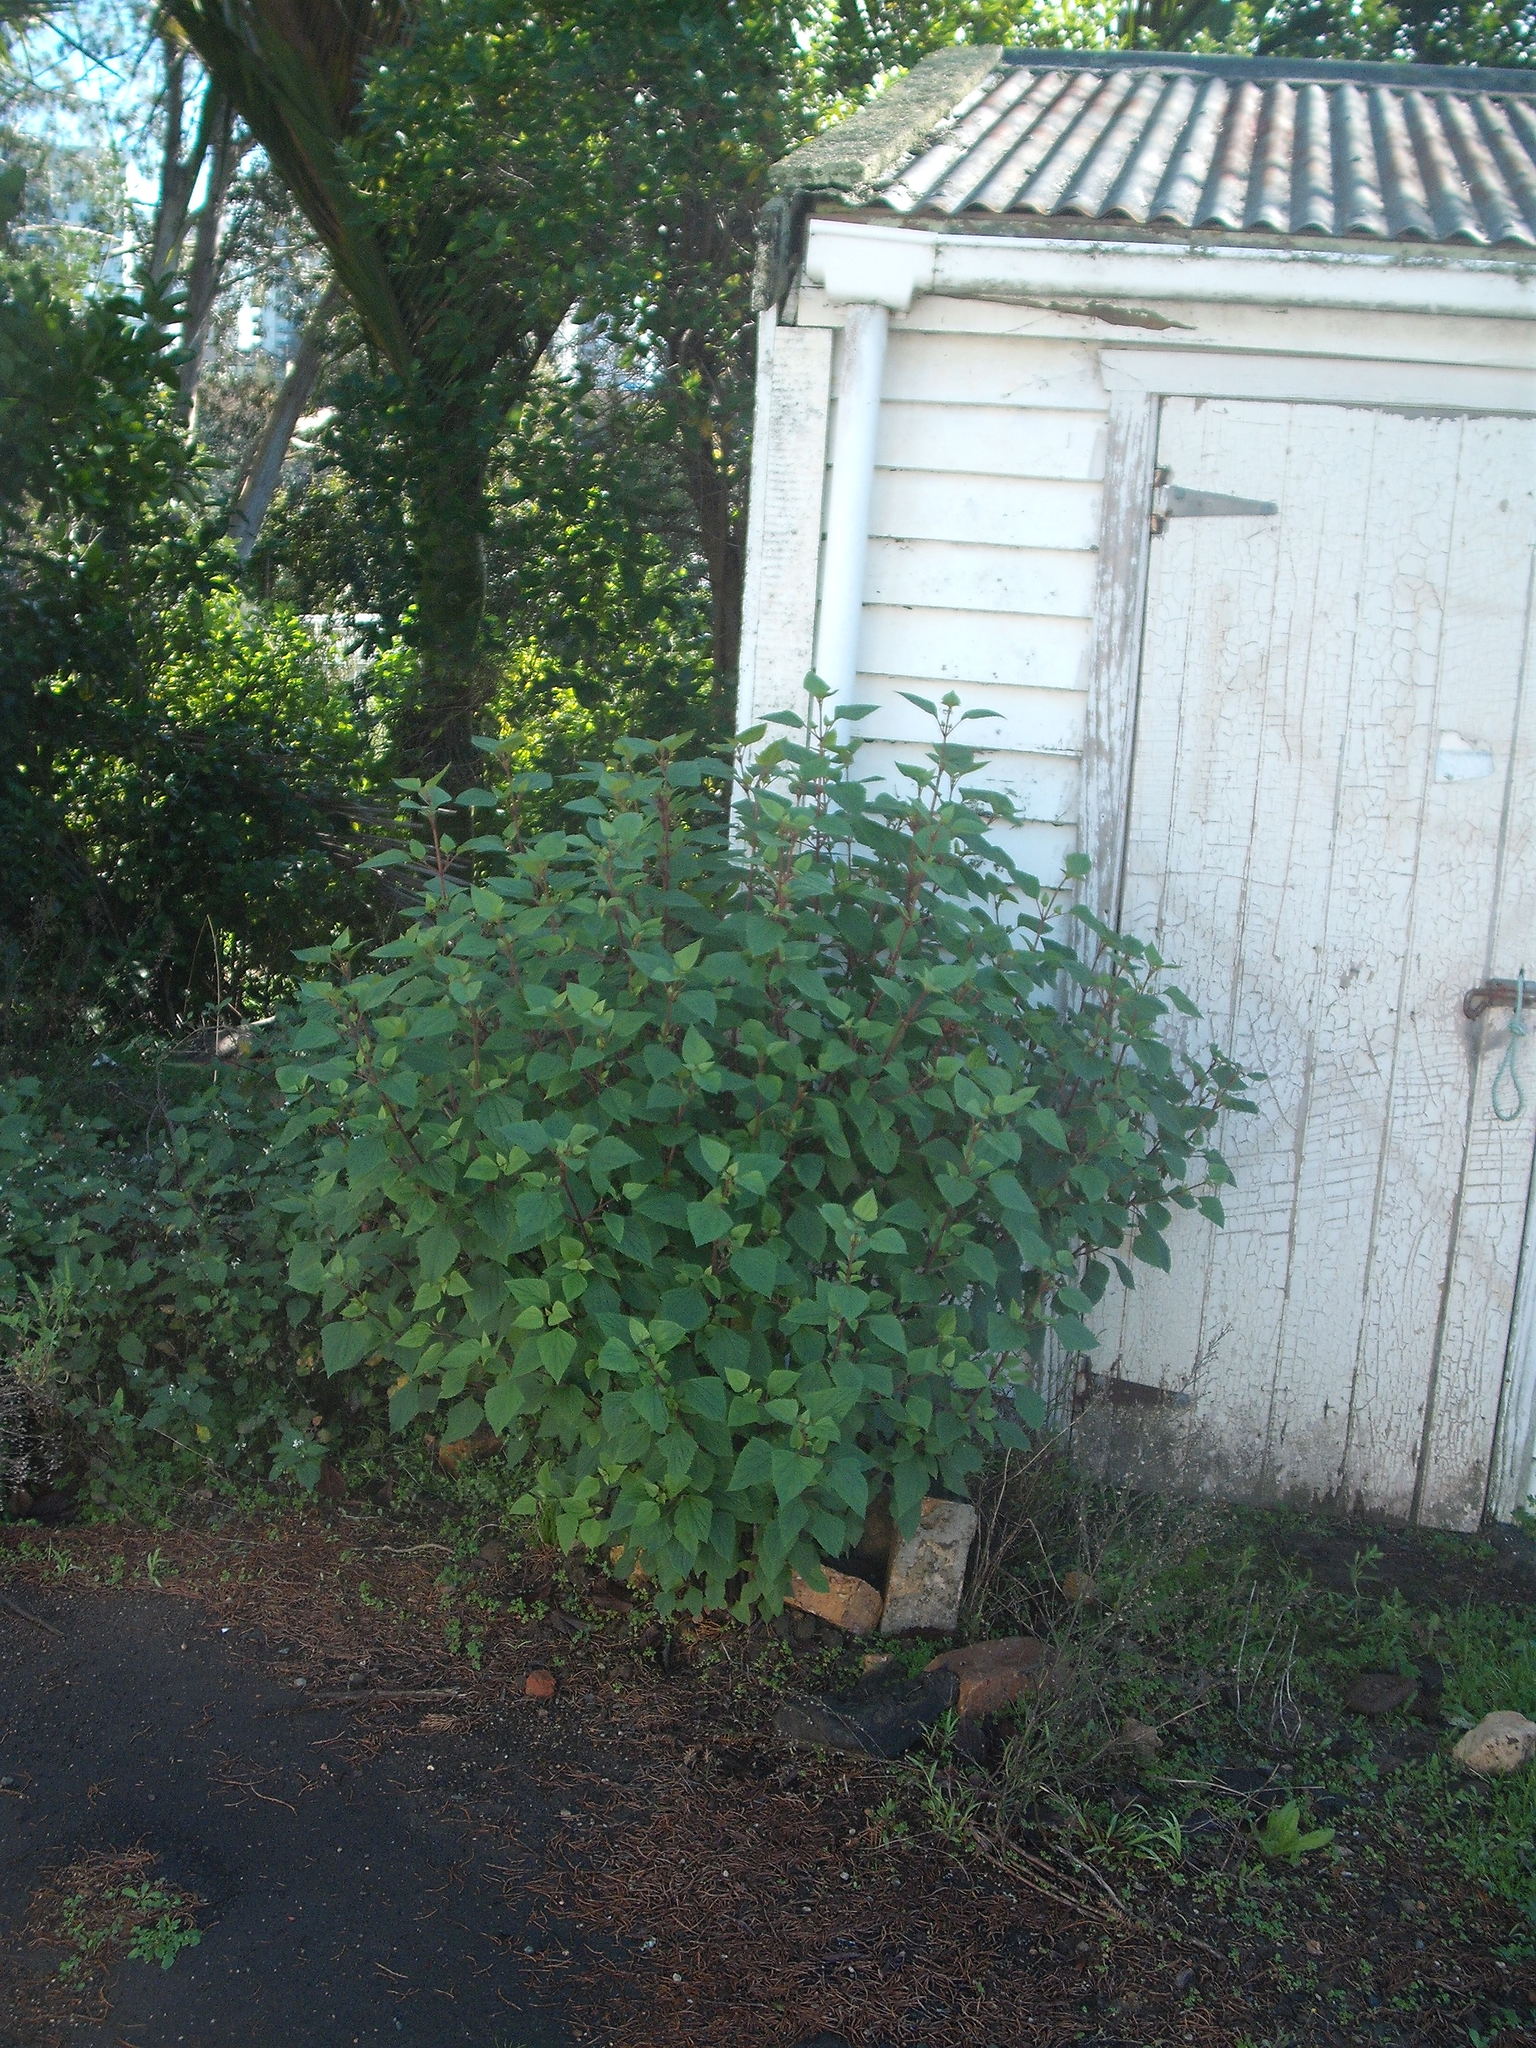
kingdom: Plantae
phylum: Tracheophyta
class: Magnoliopsida
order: Asterales
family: Asteraceae
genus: Ageratina
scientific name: Ageratina adenophora
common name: Sticky snakeroot
